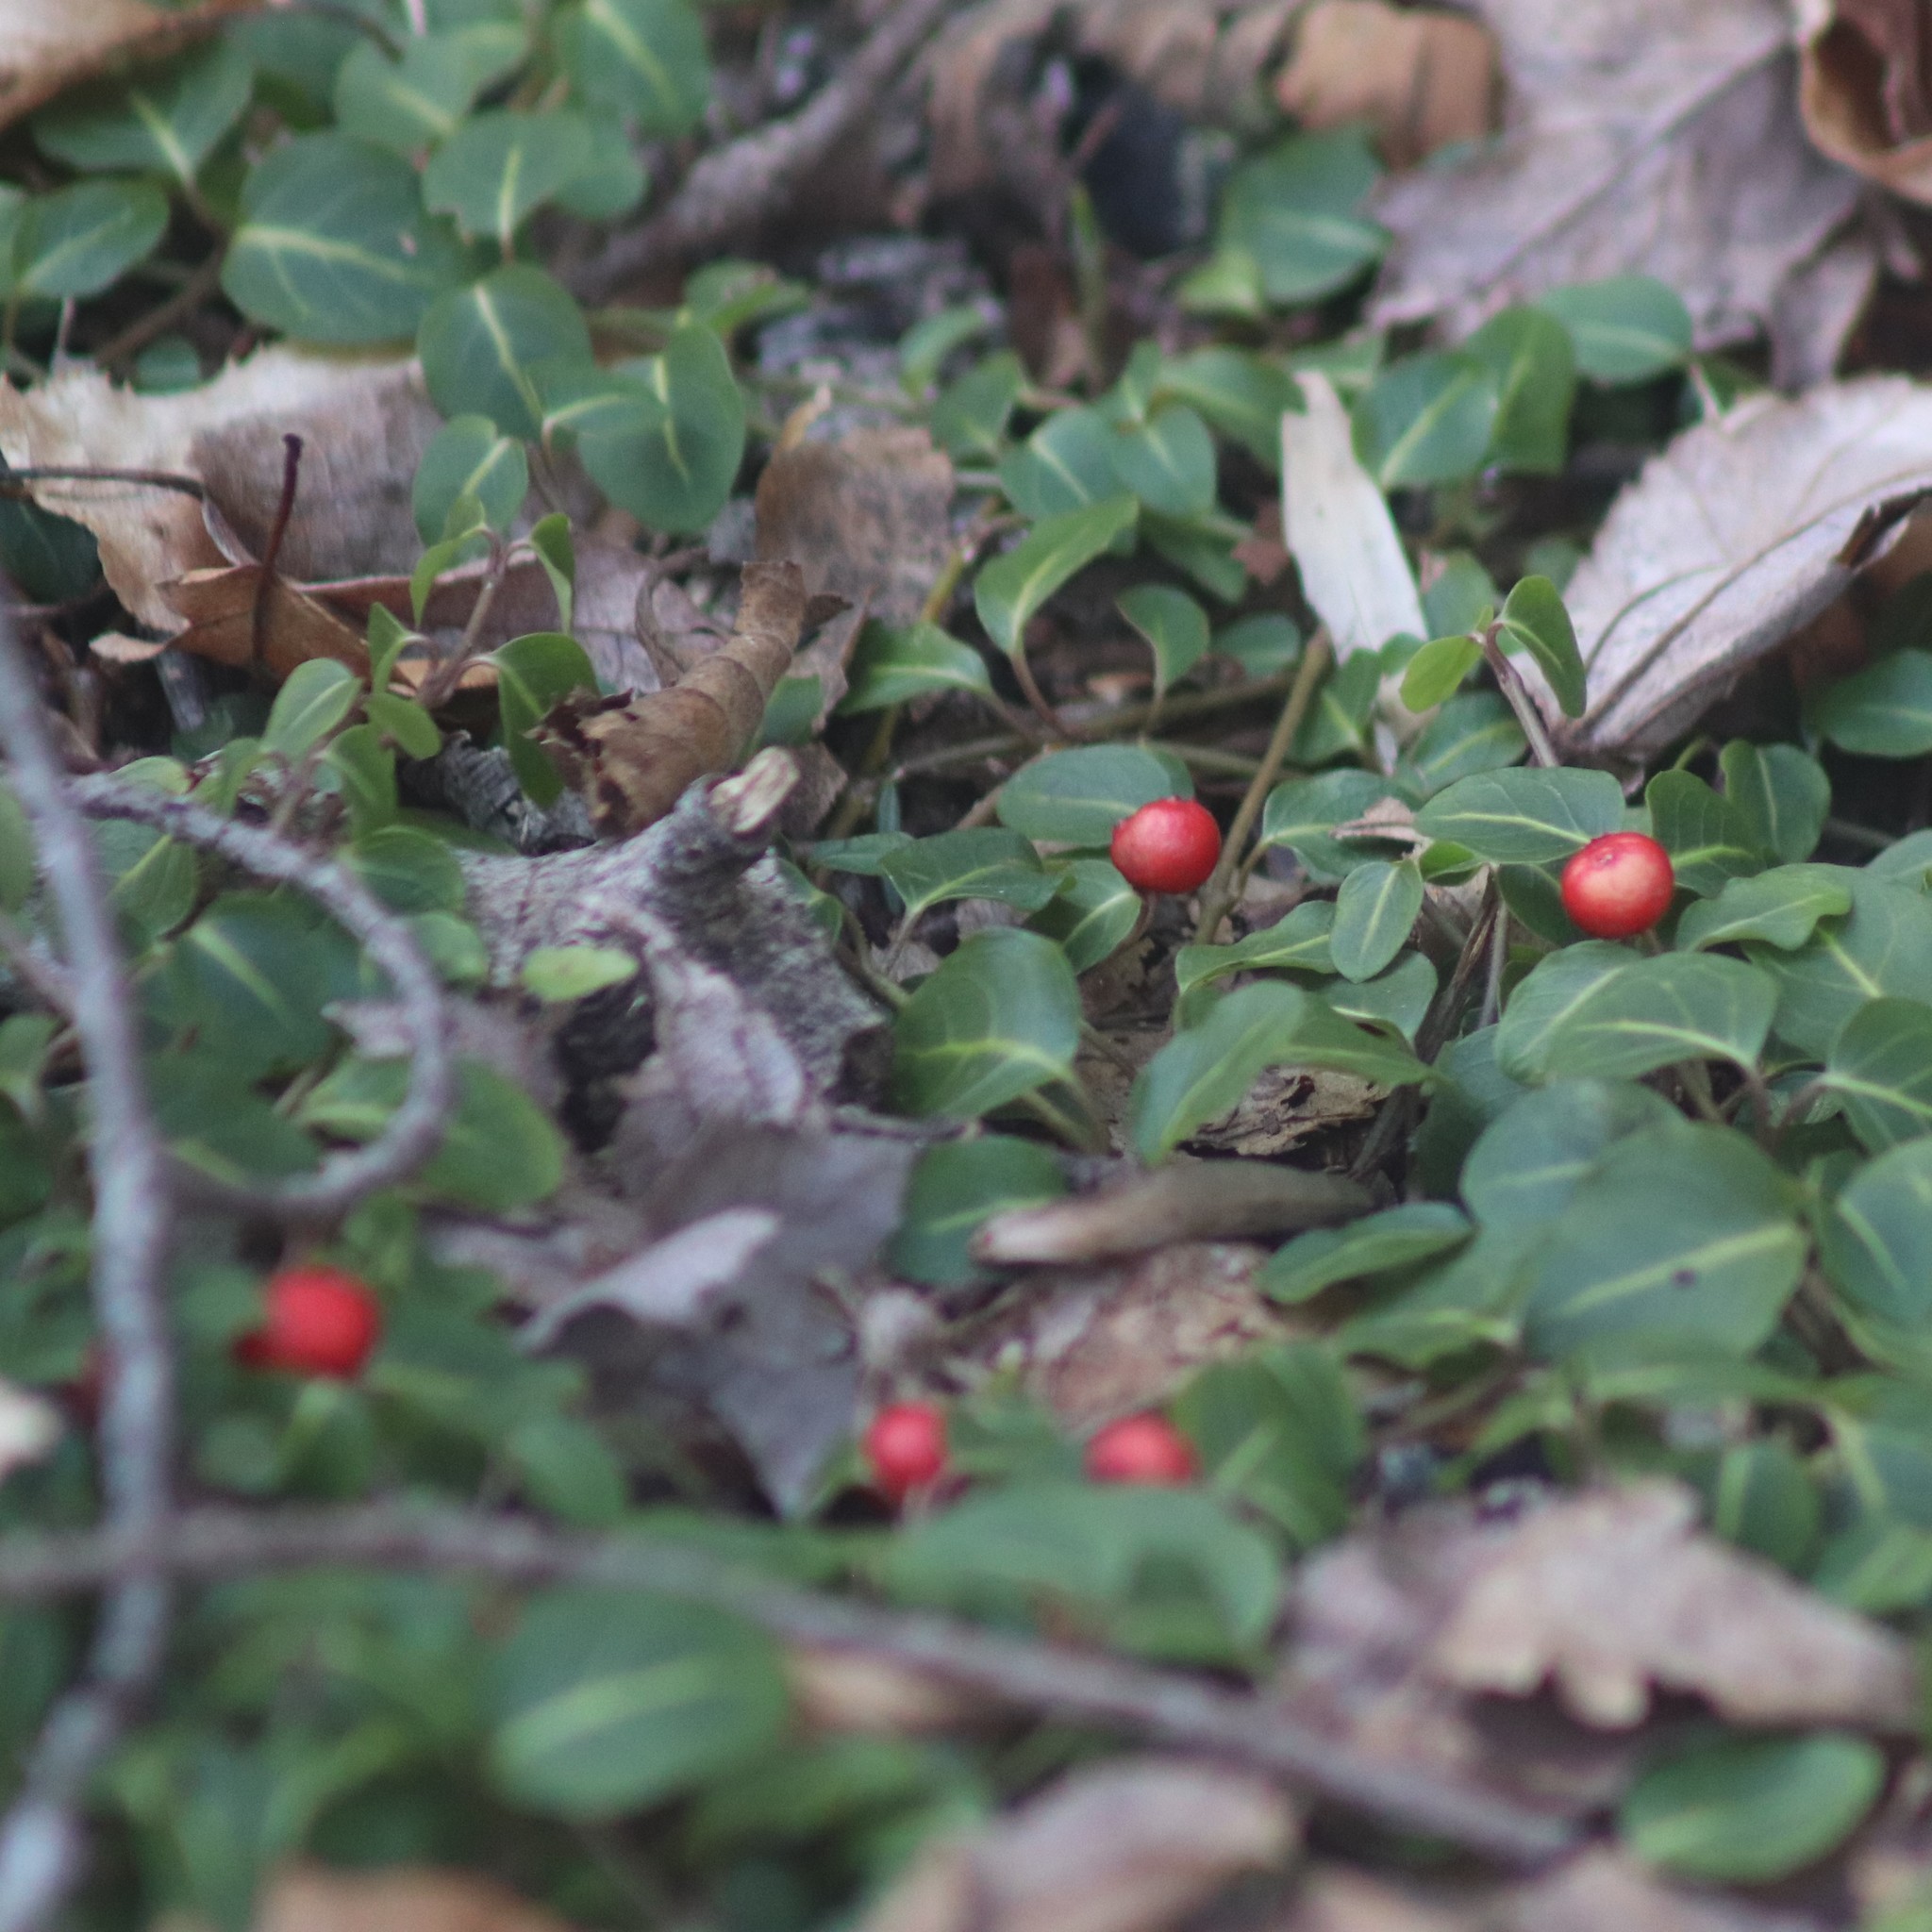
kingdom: Plantae
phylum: Tracheophyta
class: Magnoliopsida
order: Gentianales
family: Rubiaceae
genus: Mitchella
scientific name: Mitchella repens
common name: Partridge-berry
